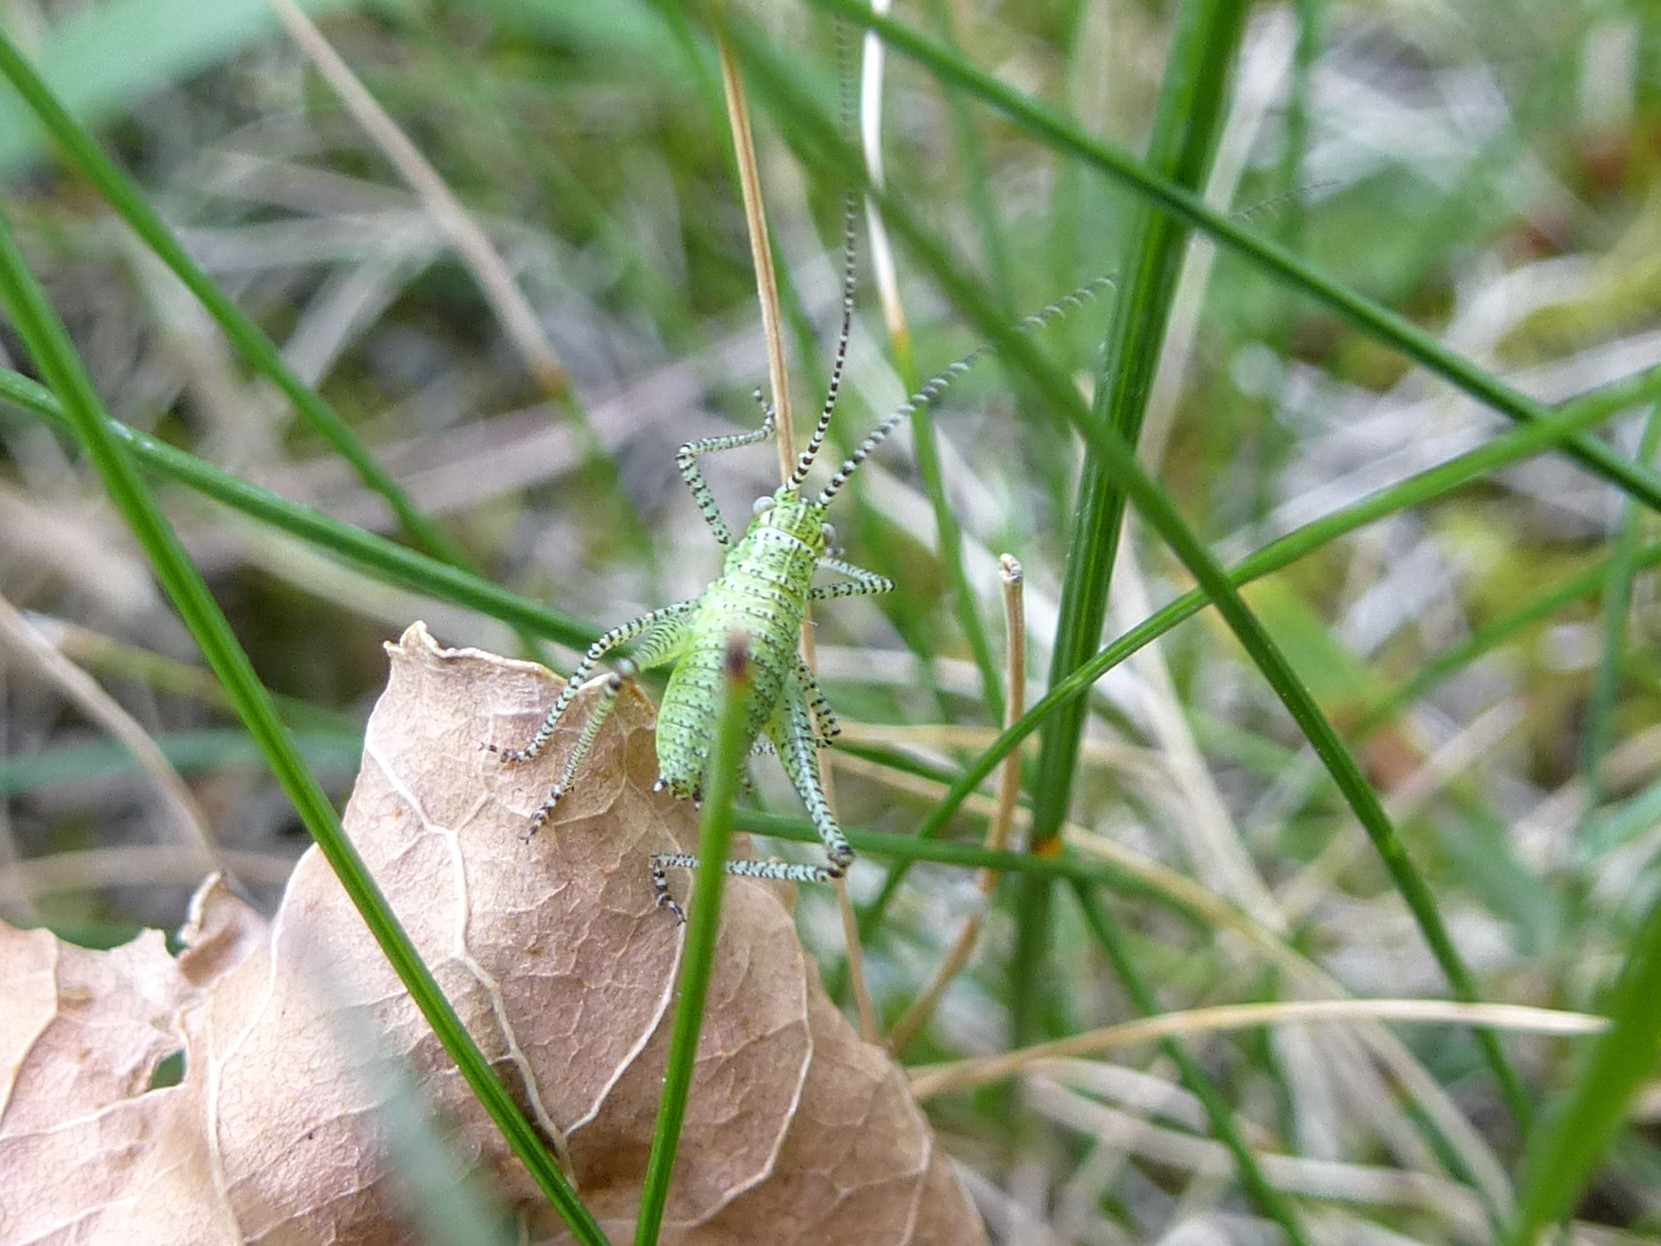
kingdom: Animalia
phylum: Arthropoda
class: Insecta
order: Orthoptera
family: Tettigoniidae
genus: Barbitistes
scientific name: Barbitistes serricauda
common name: Saw-tailed bush-cricket
